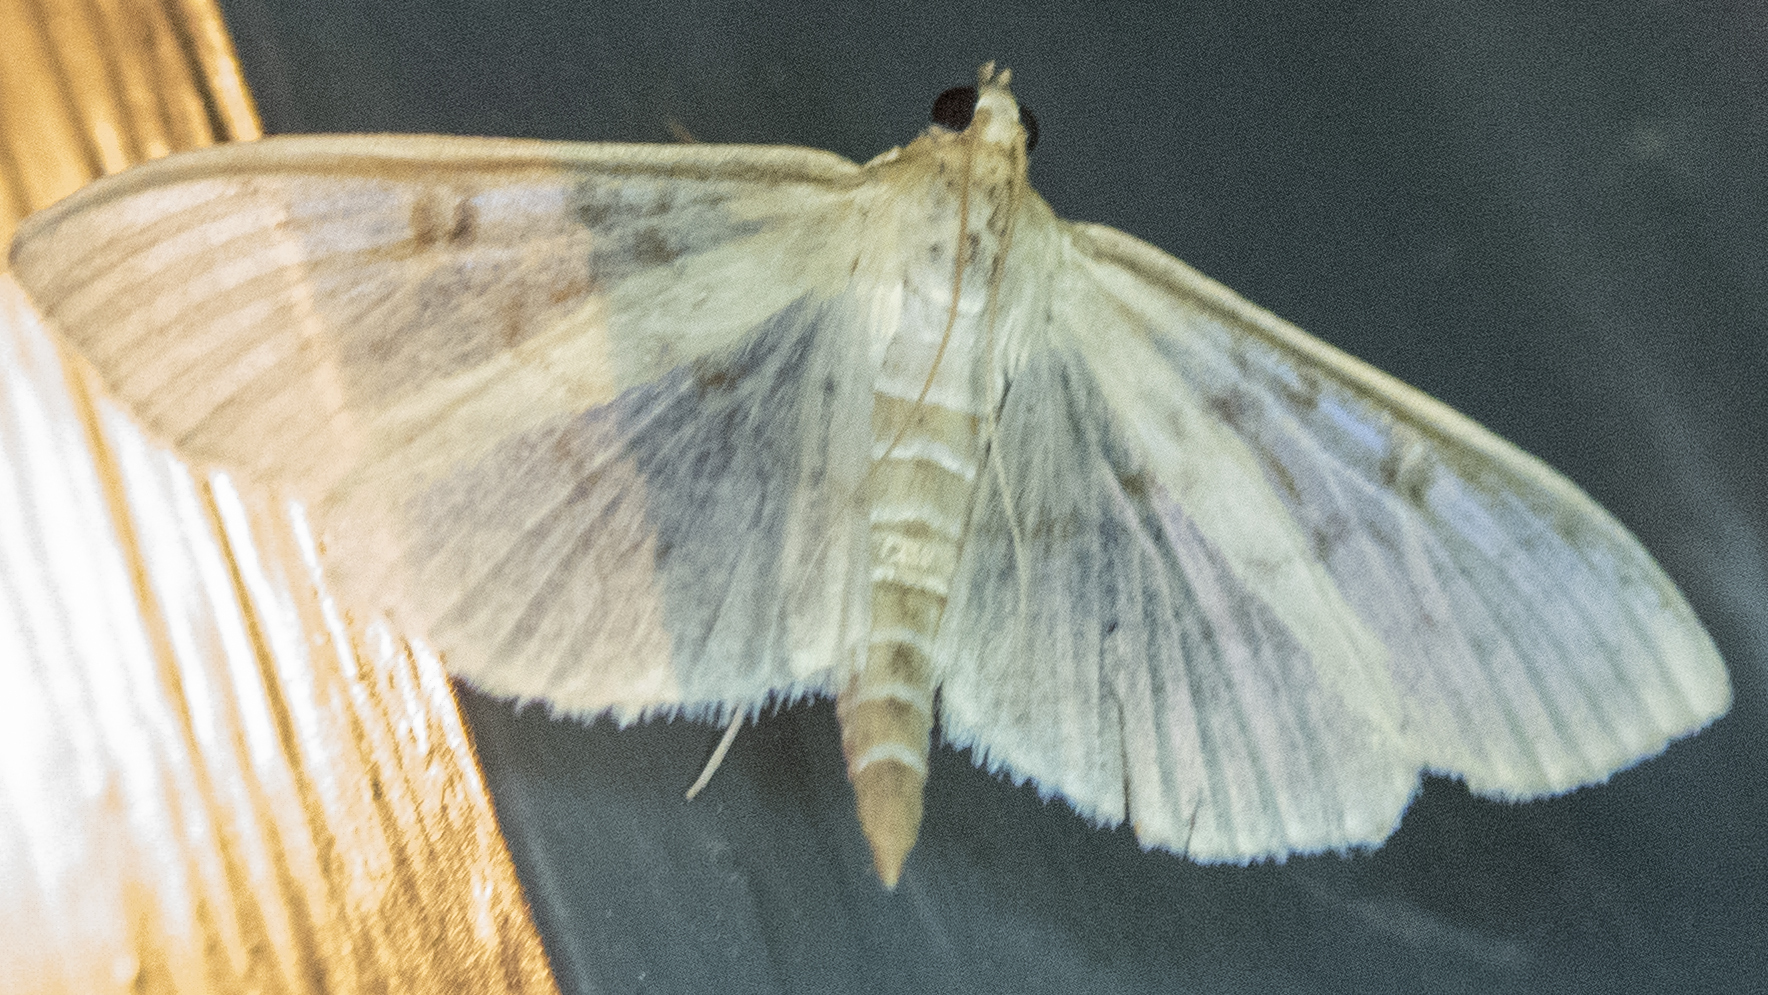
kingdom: Animalia
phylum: Arthropoda
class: Insecta
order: Lepidoptera
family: Crambidae
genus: Herpetogramma
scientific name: Herpetogramma aquilonalis
